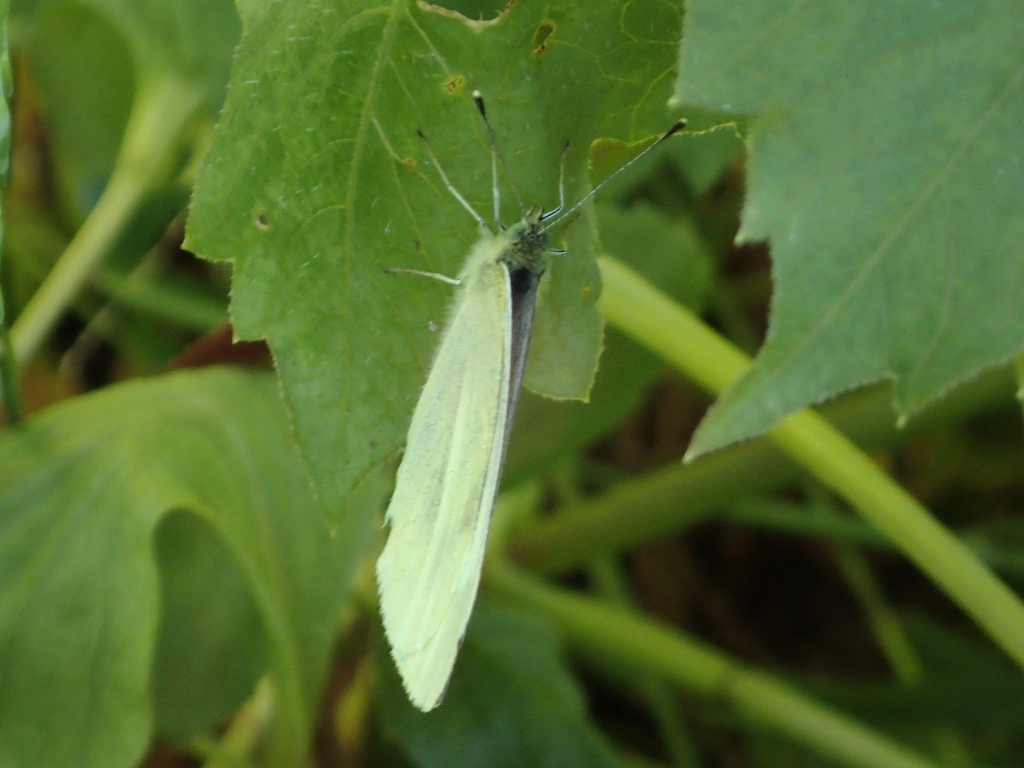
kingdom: Animalia
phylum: Arthropoda
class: Insecta
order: Lepidoptera
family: Pieridae
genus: Pieris
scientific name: Pieris rapae
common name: Small white
